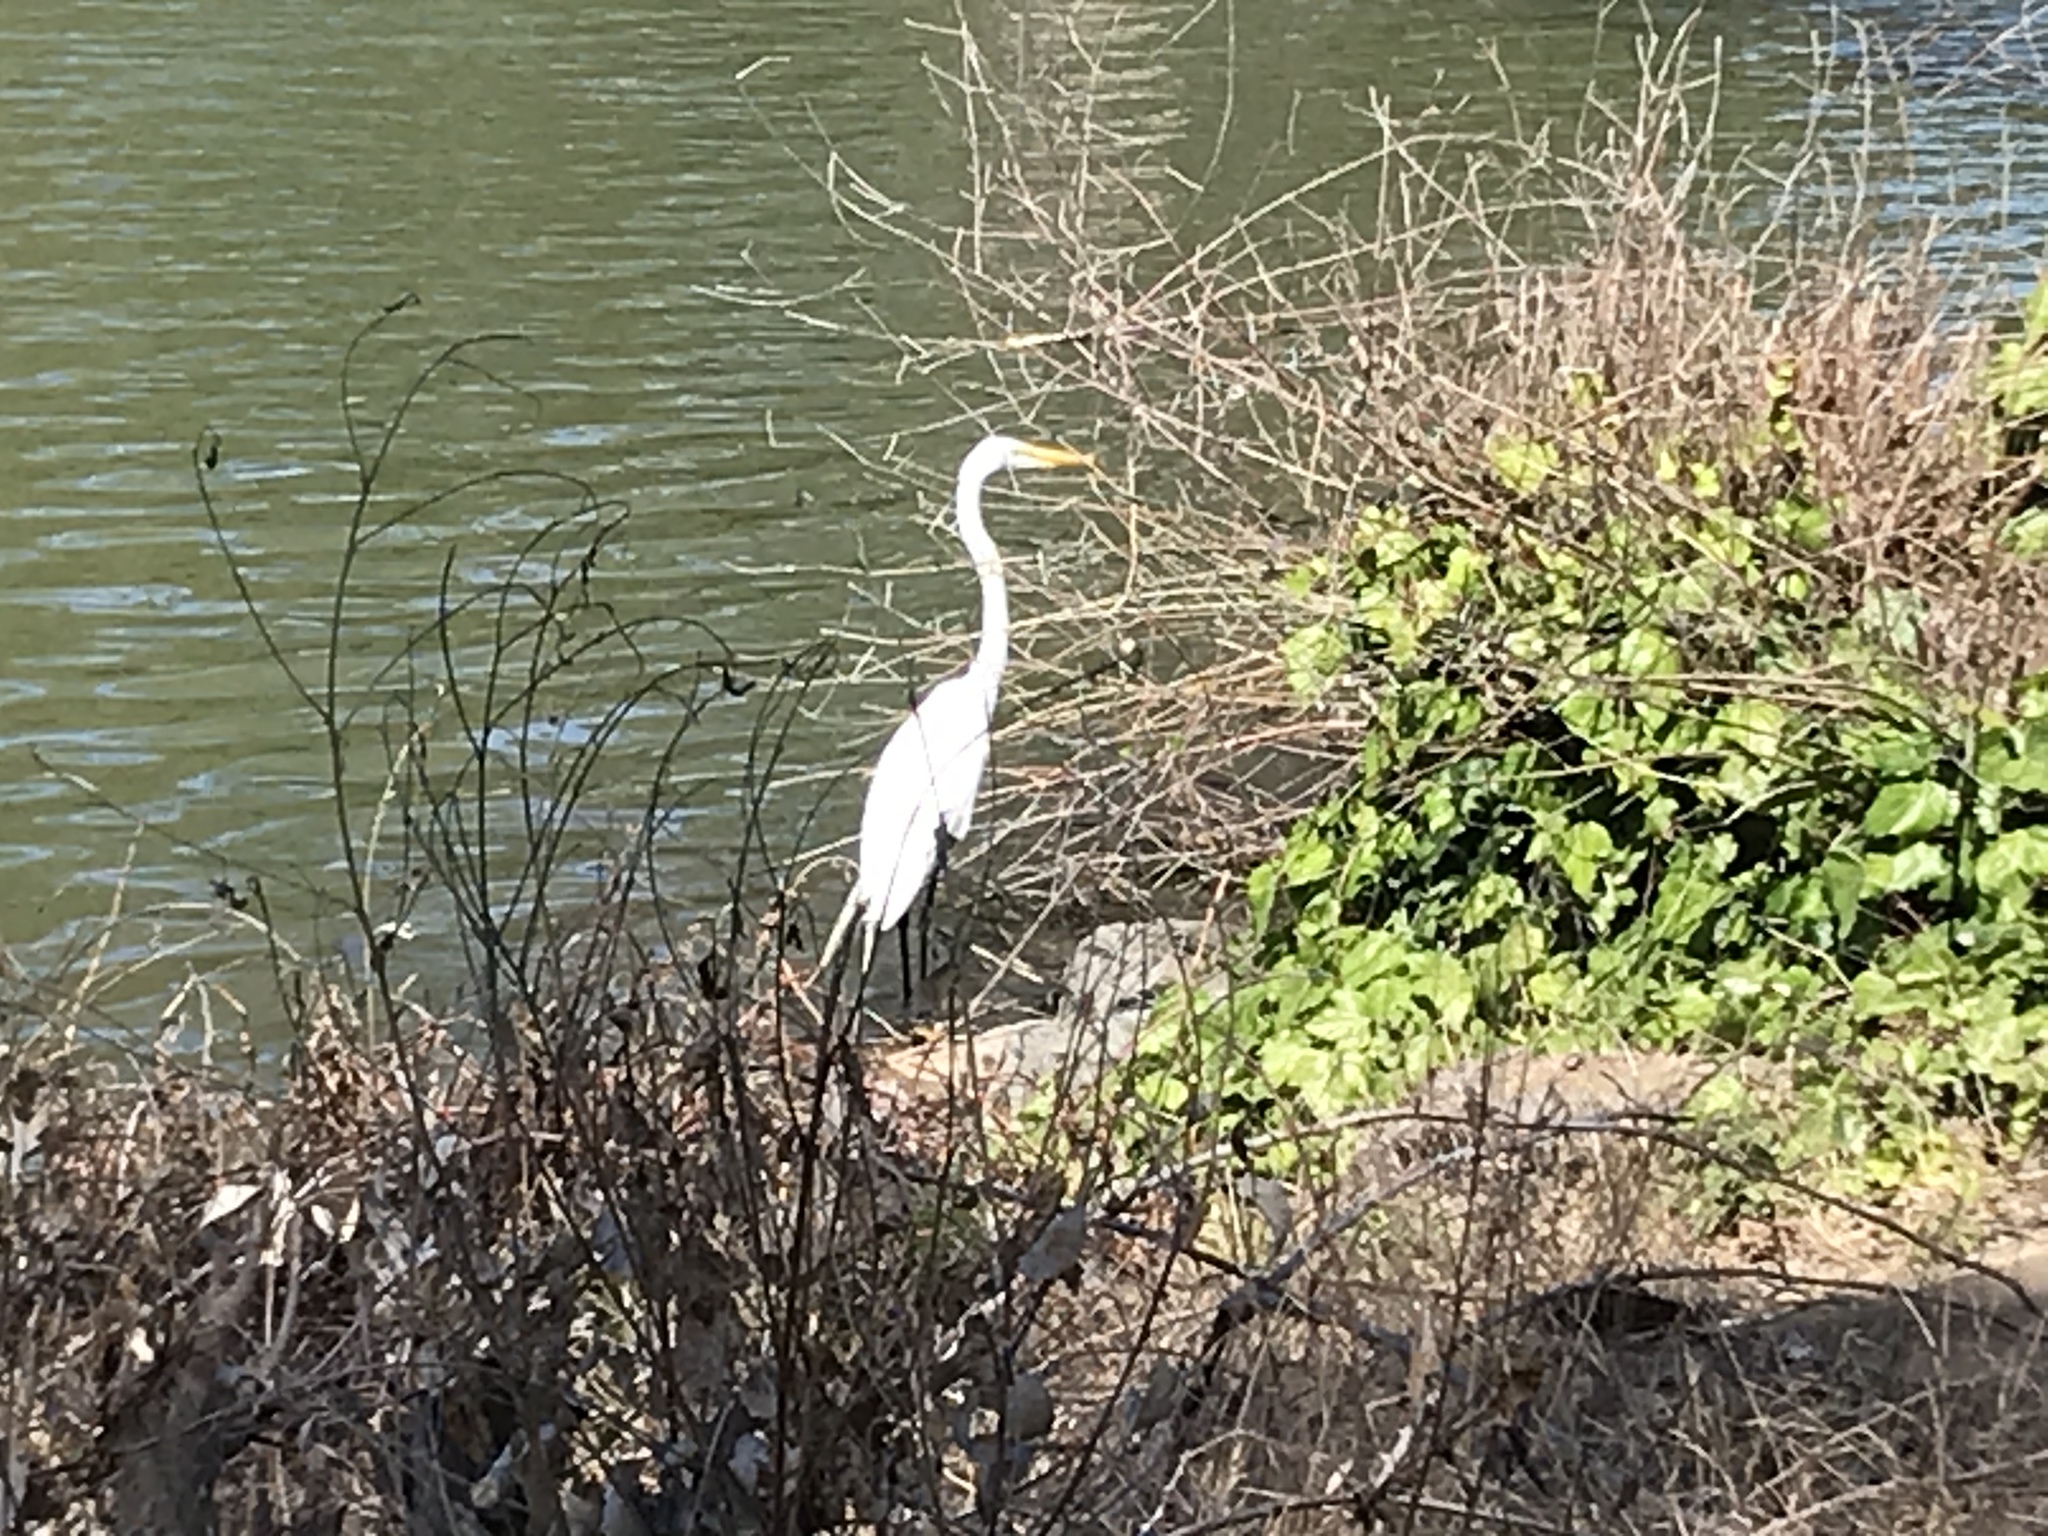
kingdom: Animalia
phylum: Chordata
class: Aves
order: Pelecaniformes
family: Ardeidae
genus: Ardea
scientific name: Ardea alba
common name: Great egret
